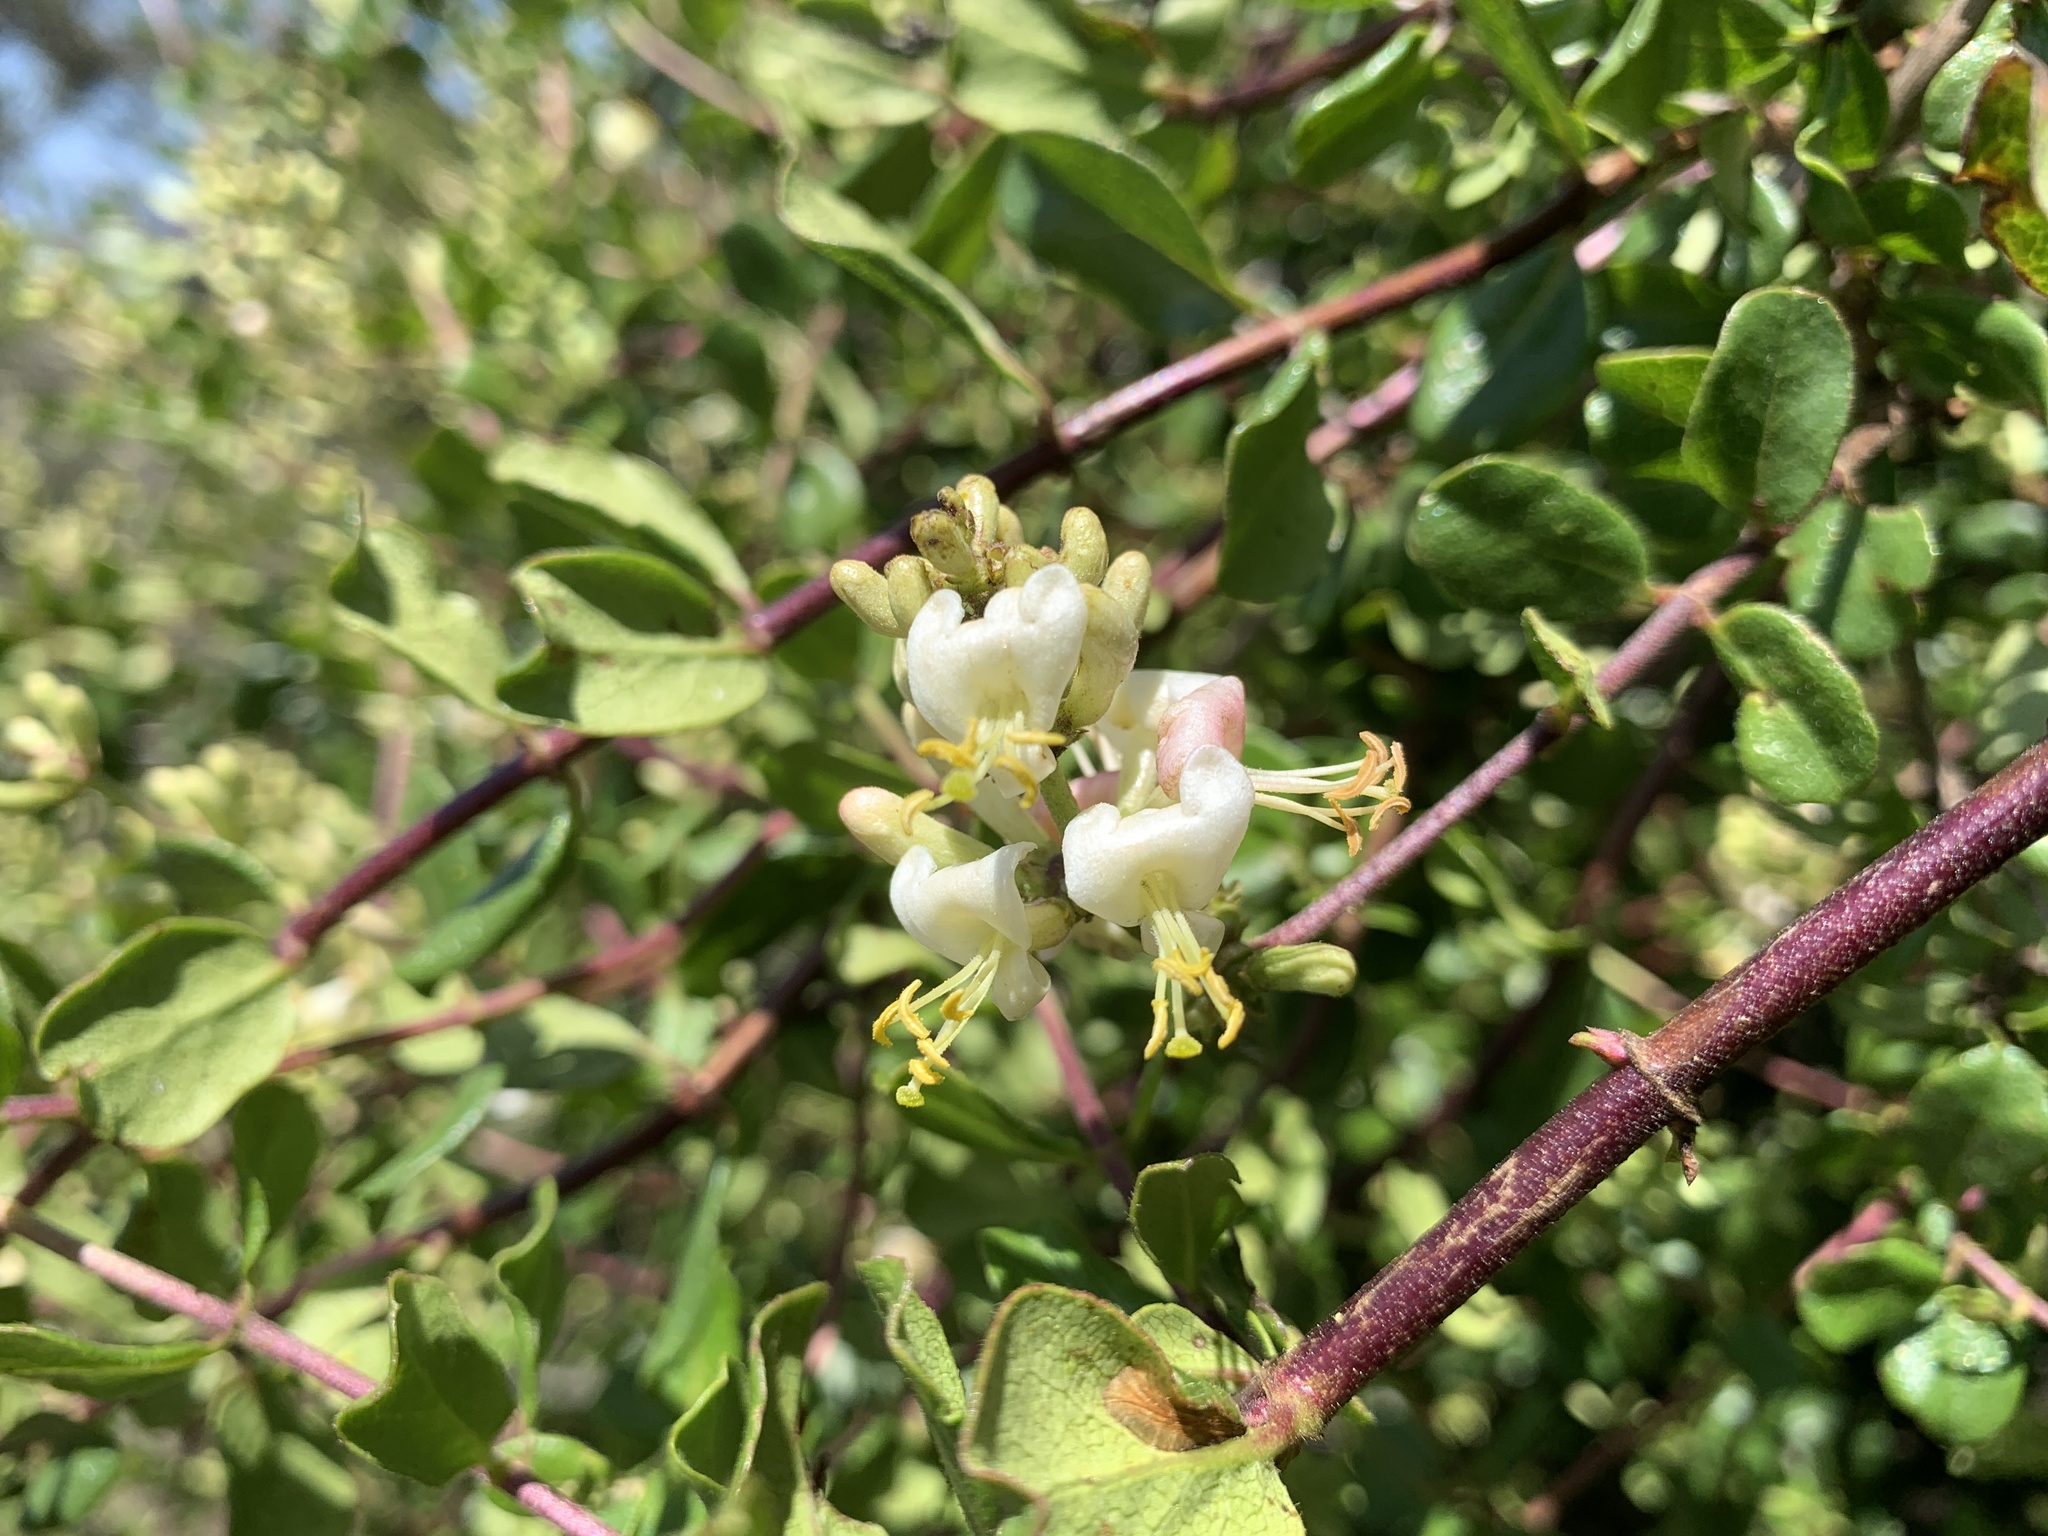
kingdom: Plantae
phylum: Tracheophyta
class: Magnoliopsida
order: Dipsacales
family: Caprifoliaceae
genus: Lonicera
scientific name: Lonicera subspicata
